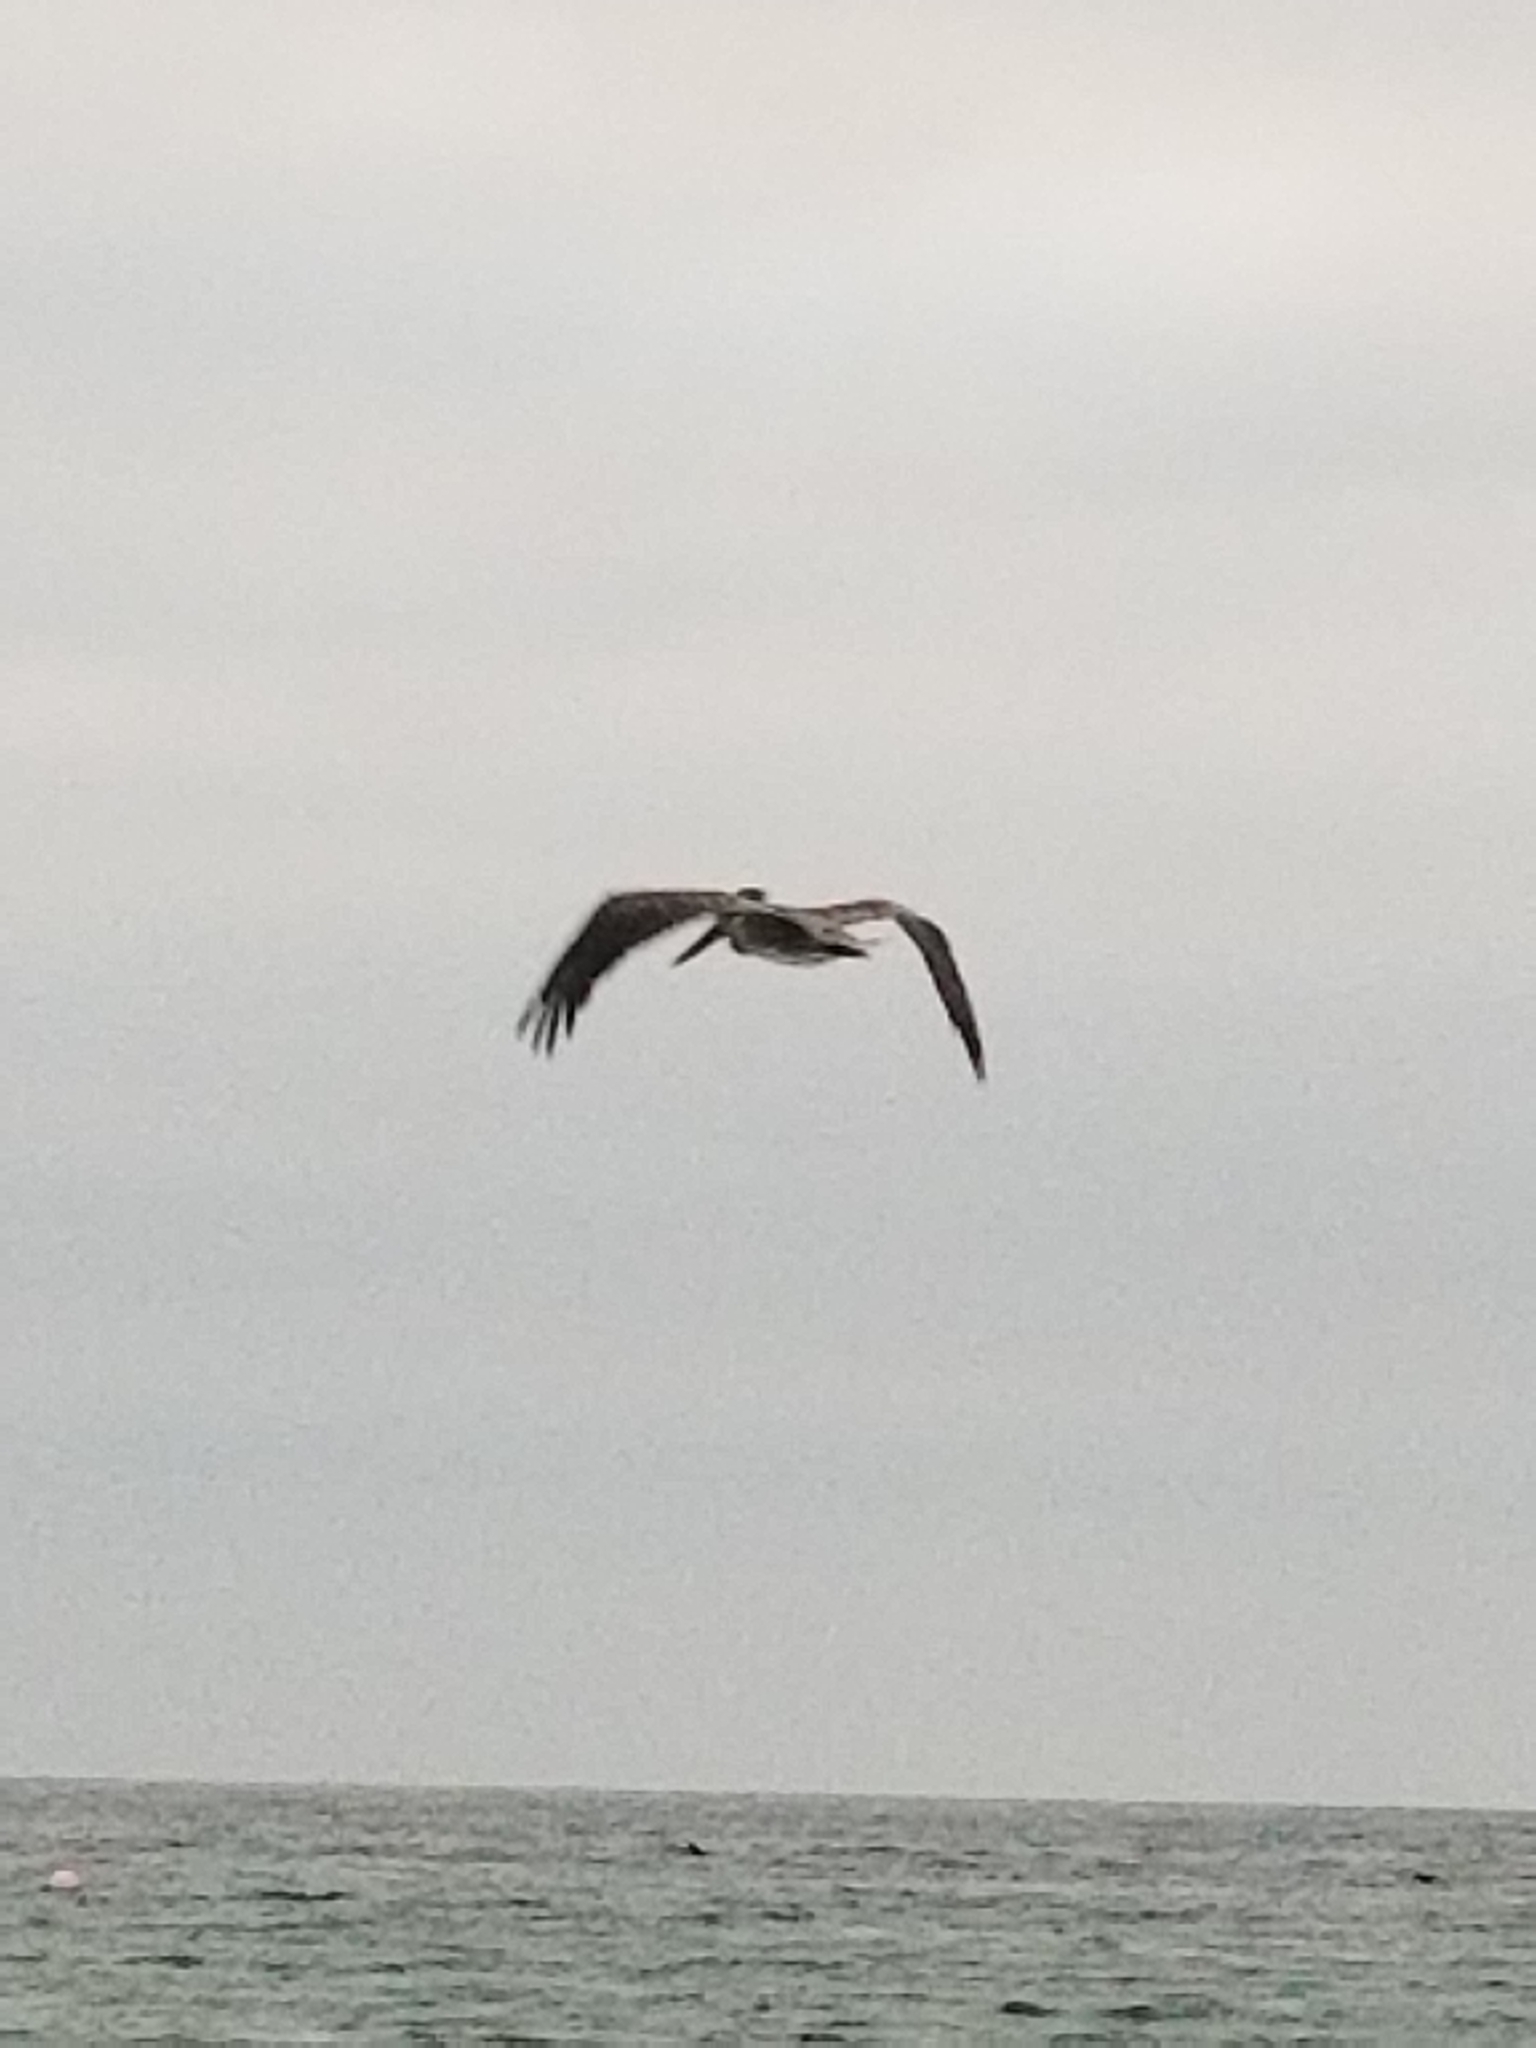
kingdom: Animalia
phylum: Chordata
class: Aves
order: Pelecaniformes
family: Pelecanidae
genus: Pelecanus
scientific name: Pelecanus occidentalis
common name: Brown pelican
